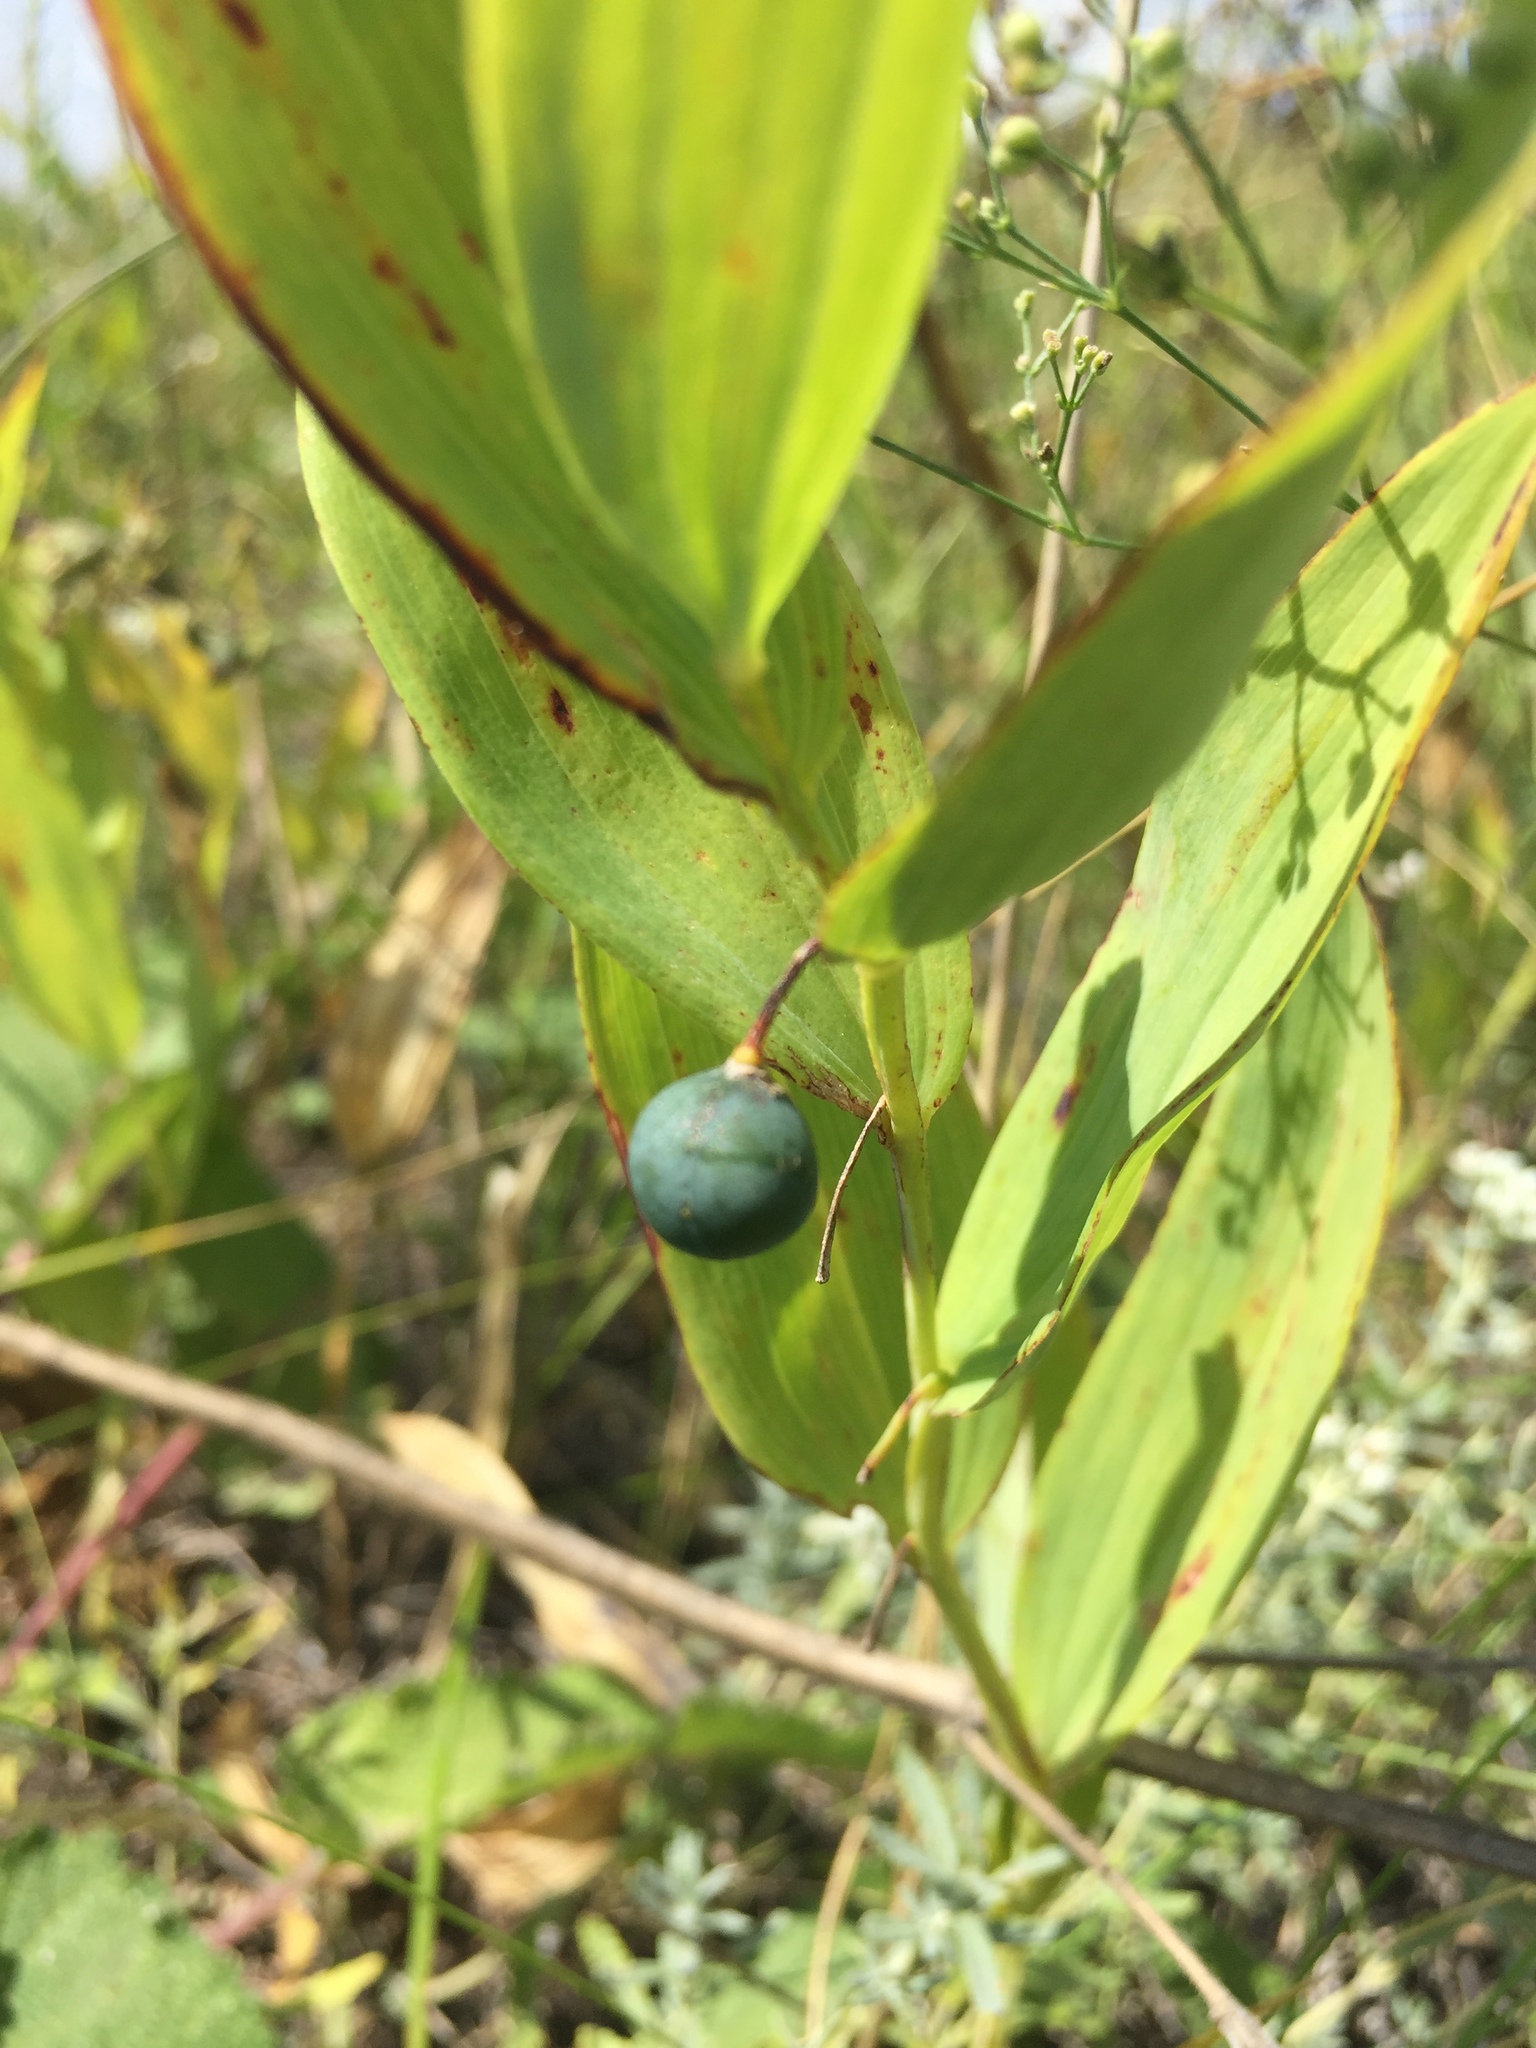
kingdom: Plantae
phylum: Tracheophyta
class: Liliopsida
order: Asparagales
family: Asparagaceae
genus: Polygonatum
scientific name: Polygonatum odoratum
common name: Angular solomon's-seal
